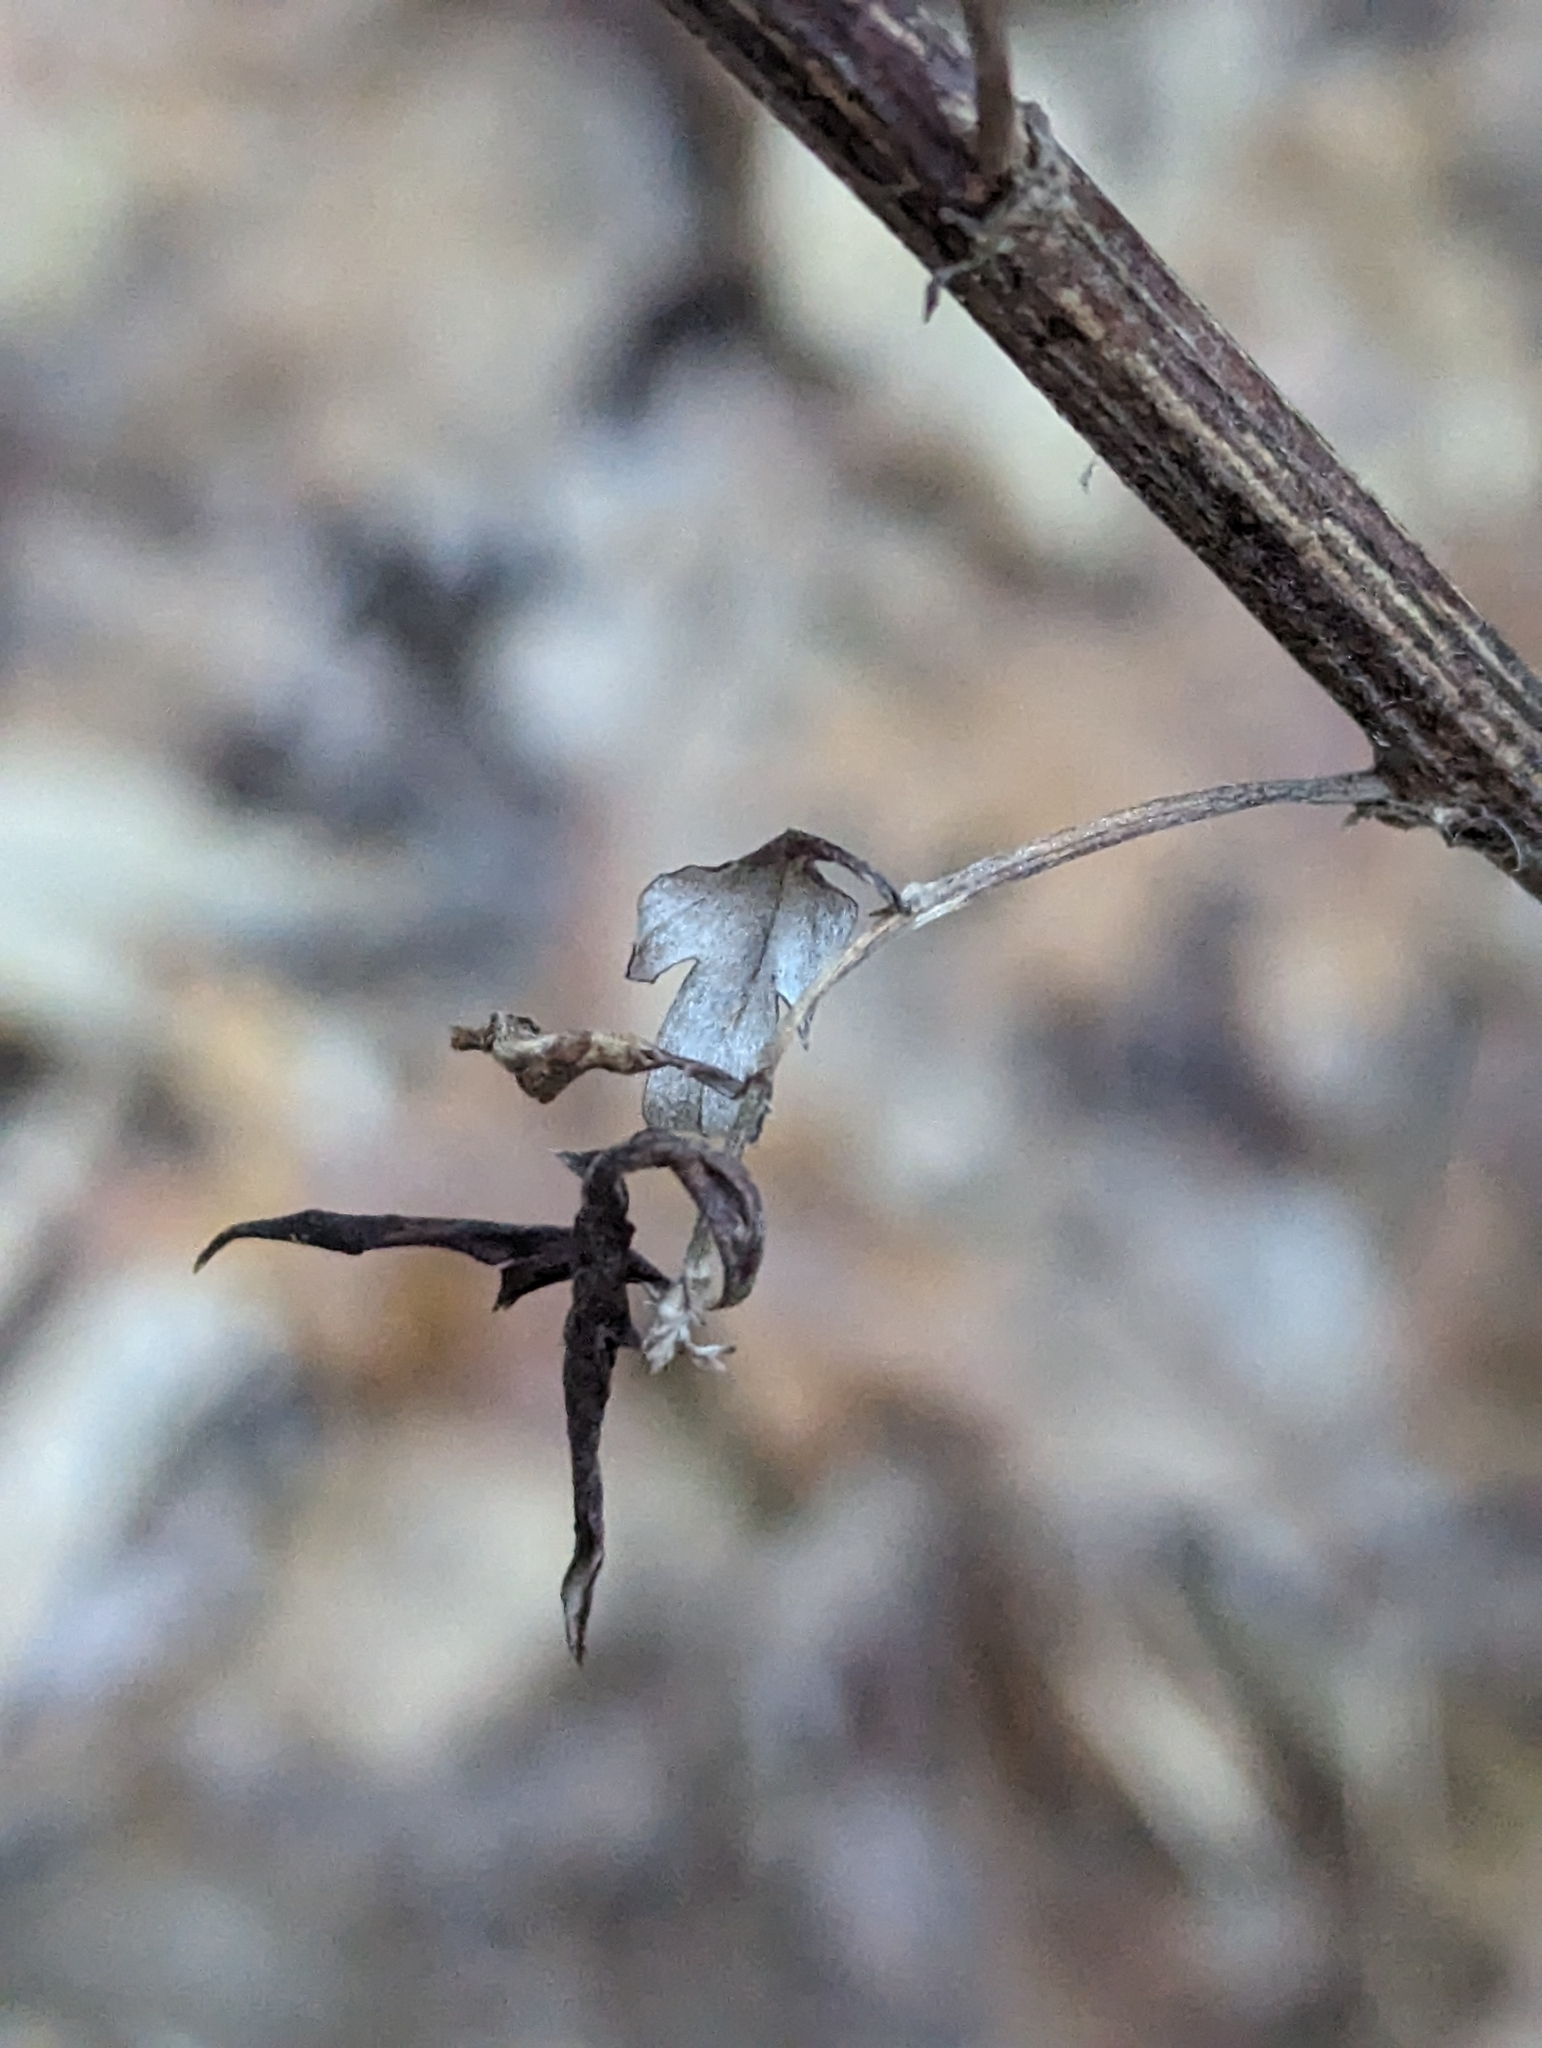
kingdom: Plantae
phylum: Tracheophyta
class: Magnoliopsida
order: Asterales
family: Asteraceae
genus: Artemisia
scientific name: Artemisia vulgaris
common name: Mugwort
